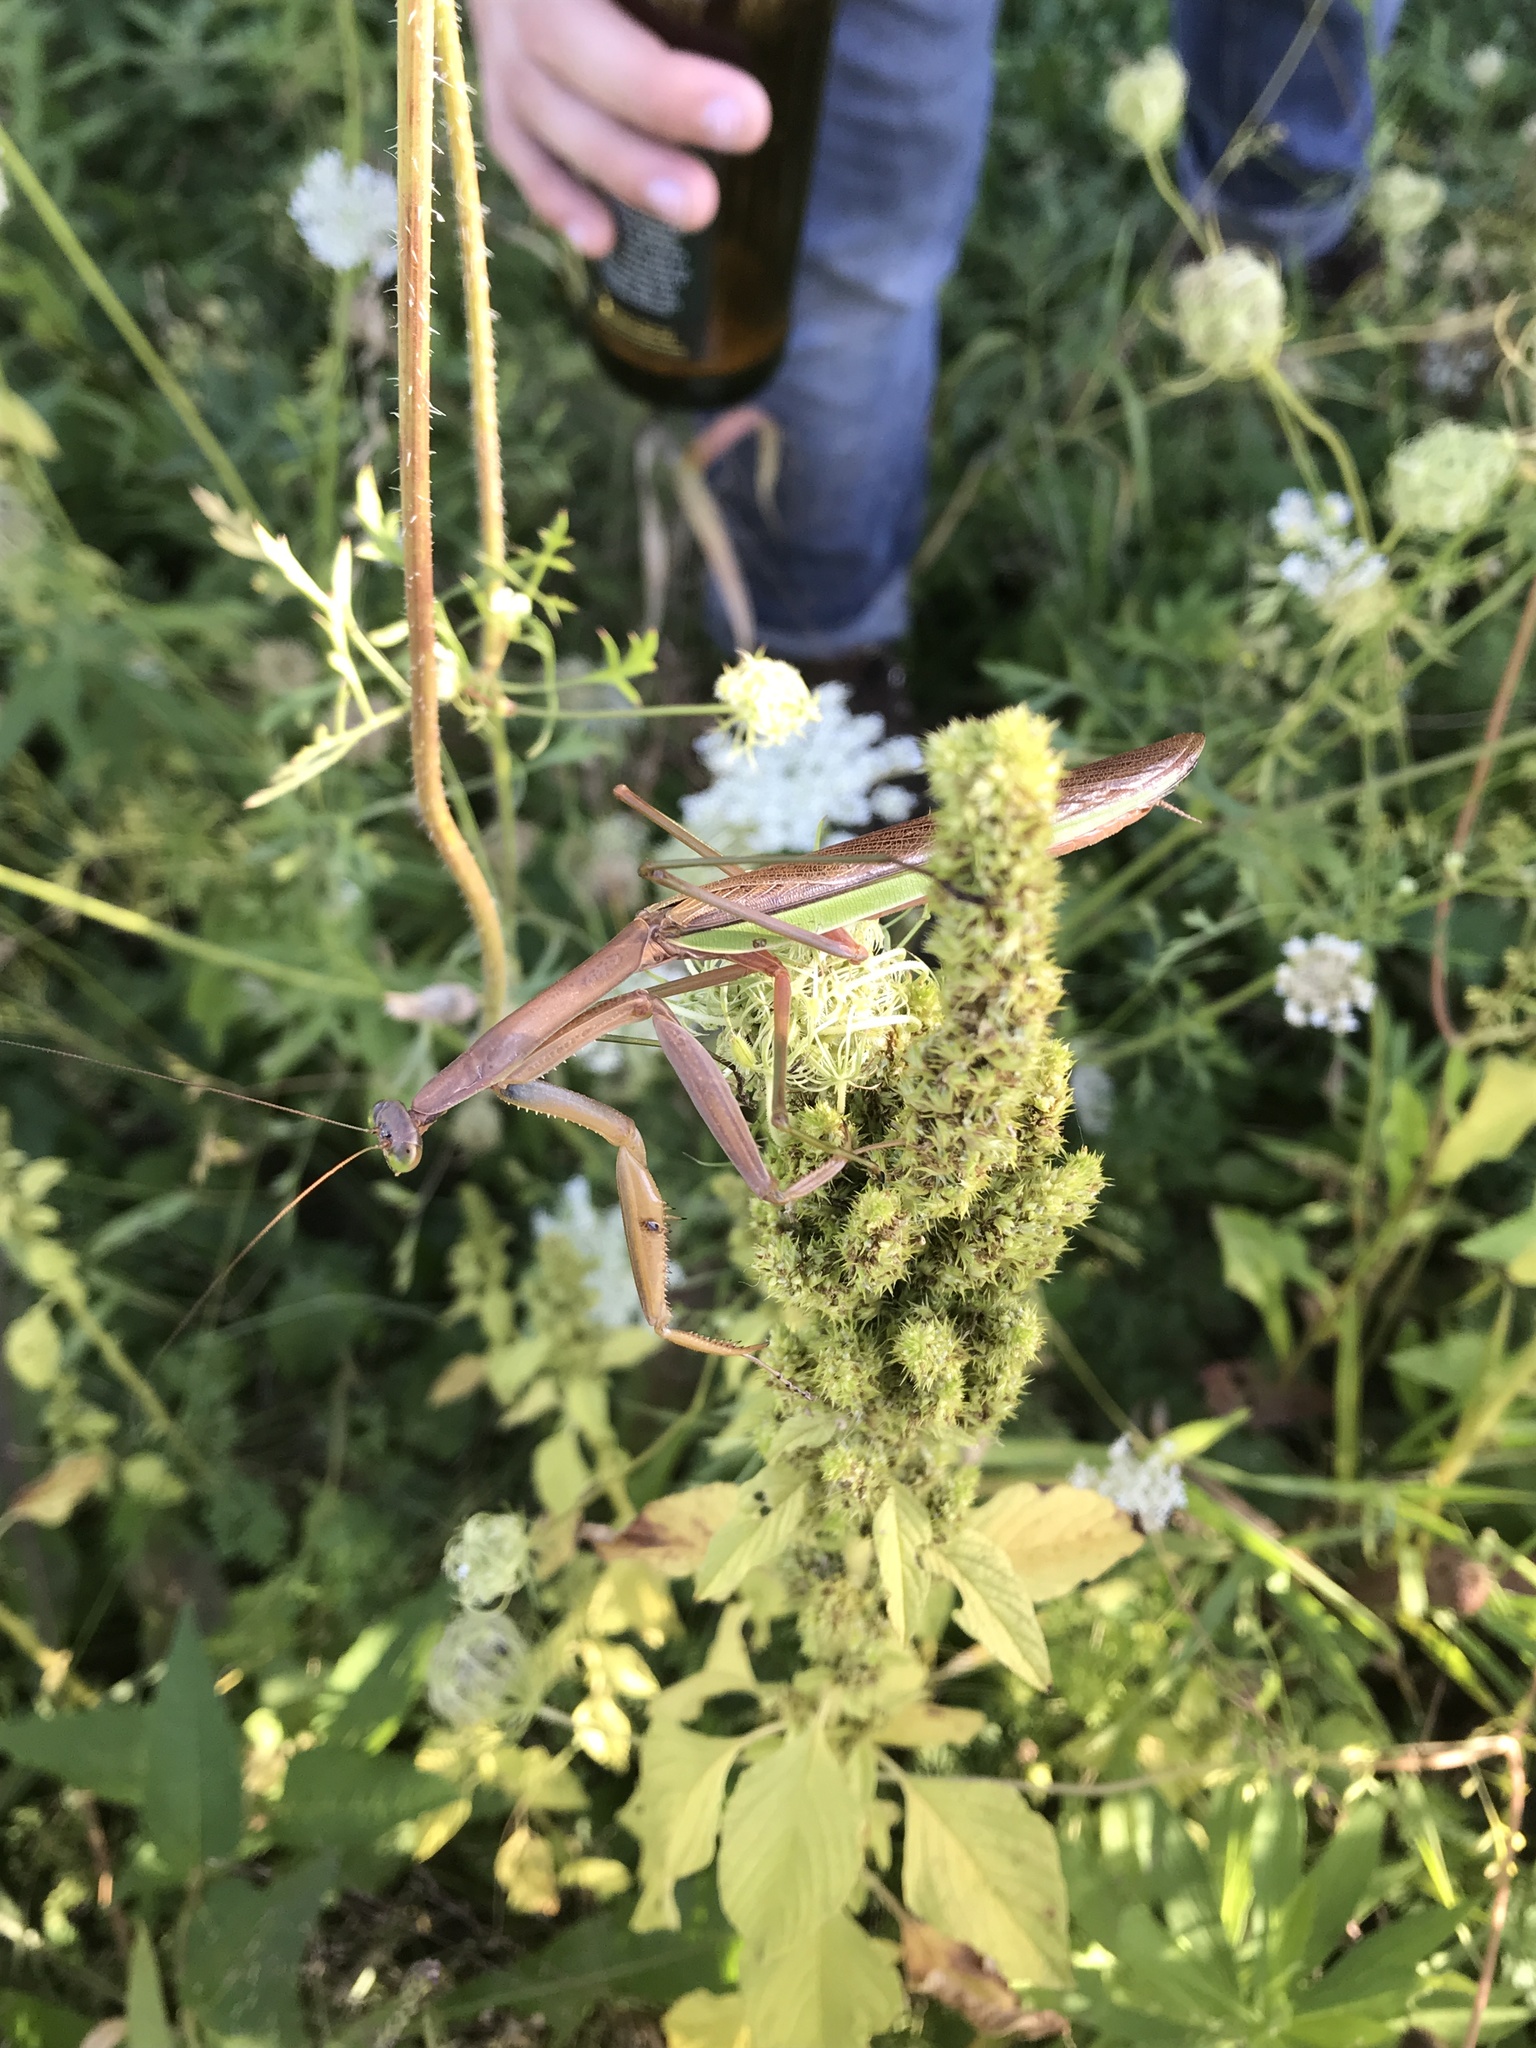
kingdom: Animalia
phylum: Arthropoda
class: Insecta
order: Mantodea
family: Mantidae
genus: Tenodera
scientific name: Tenodera sinensis
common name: Chinese mantis
